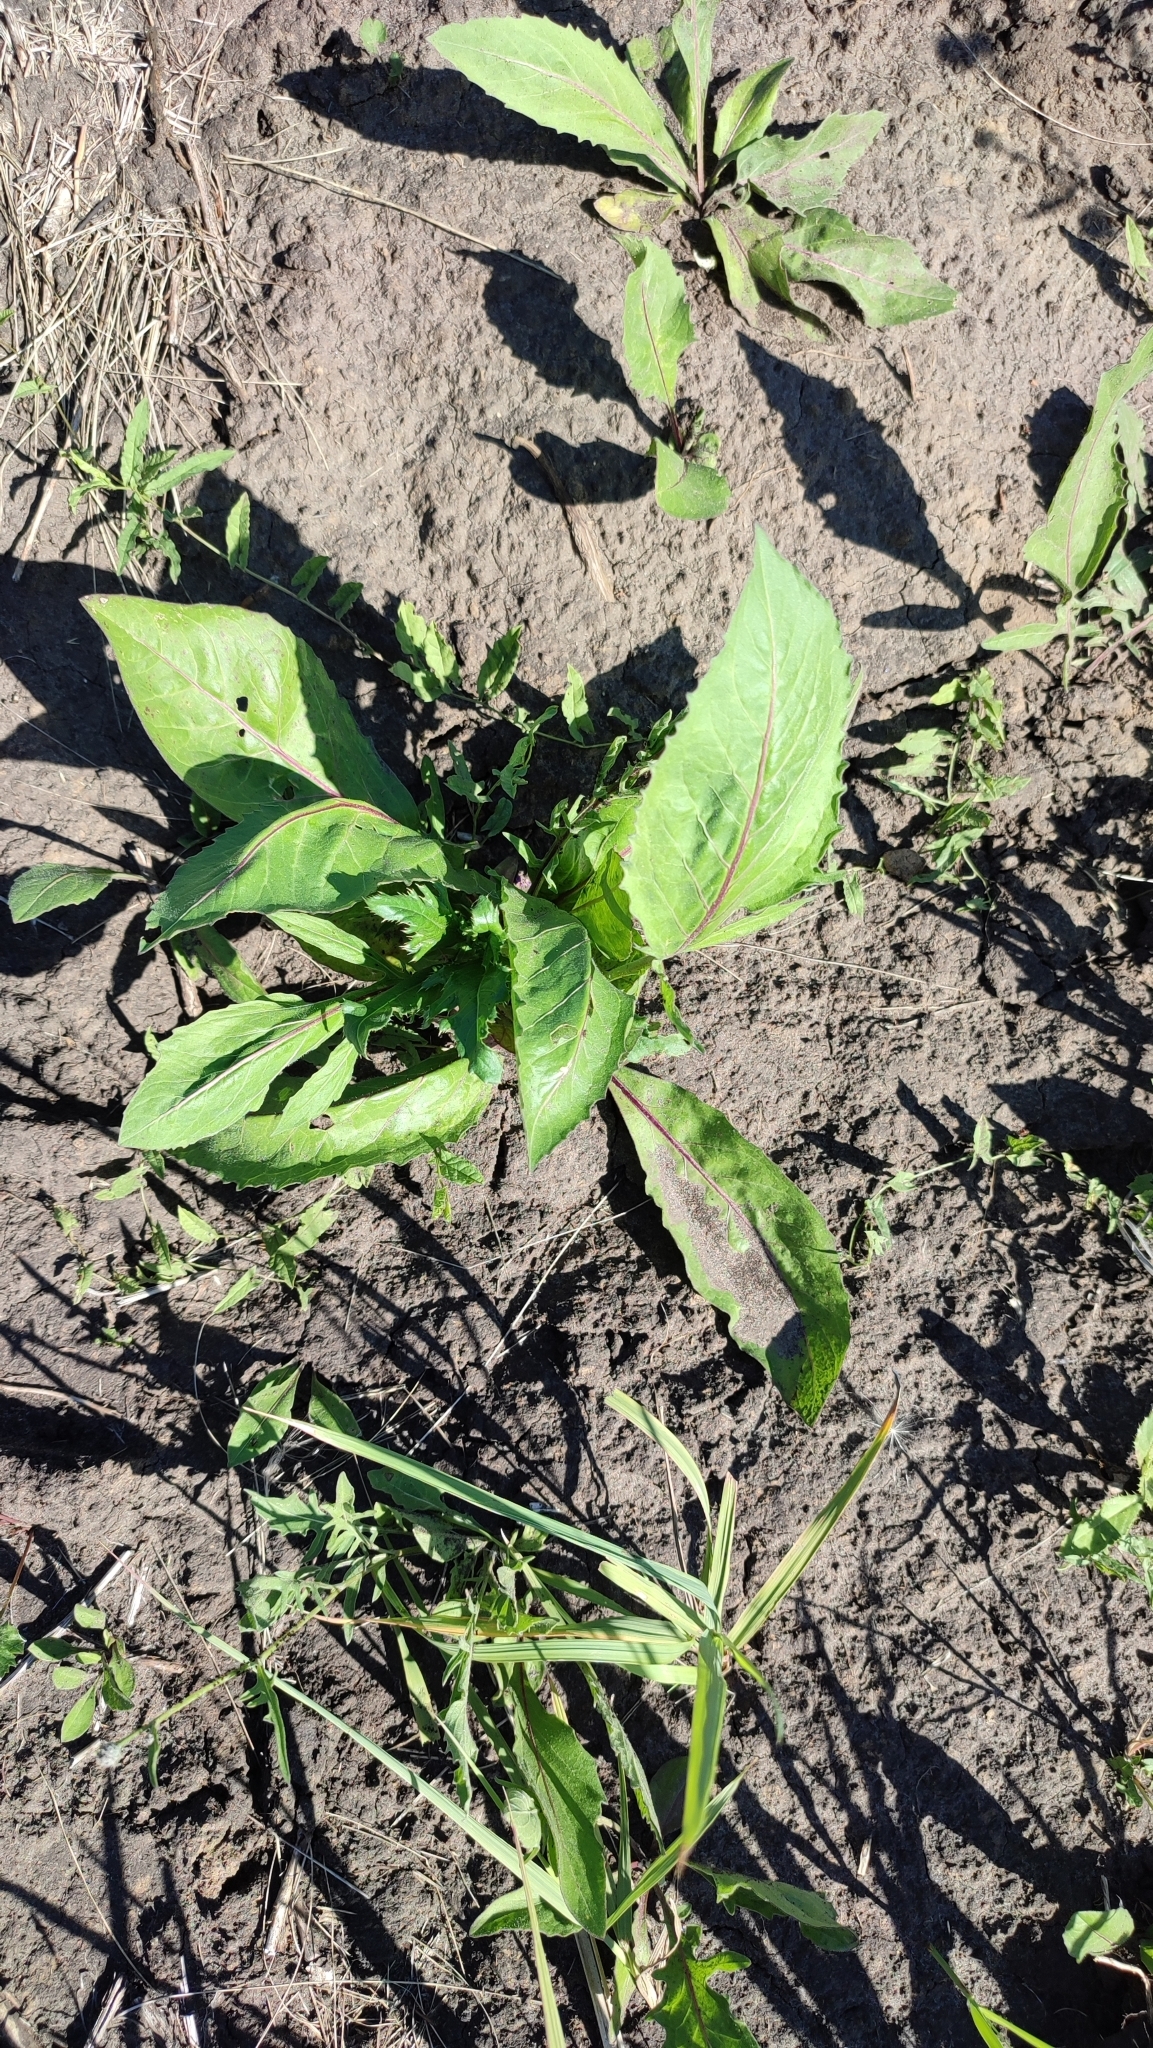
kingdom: Plantae
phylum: Tracheophyta
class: Magnoliopsida
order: Asterales
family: Asteraceae
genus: Centaurea
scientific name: Centaurea scabiosa
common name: Greater knapweed
